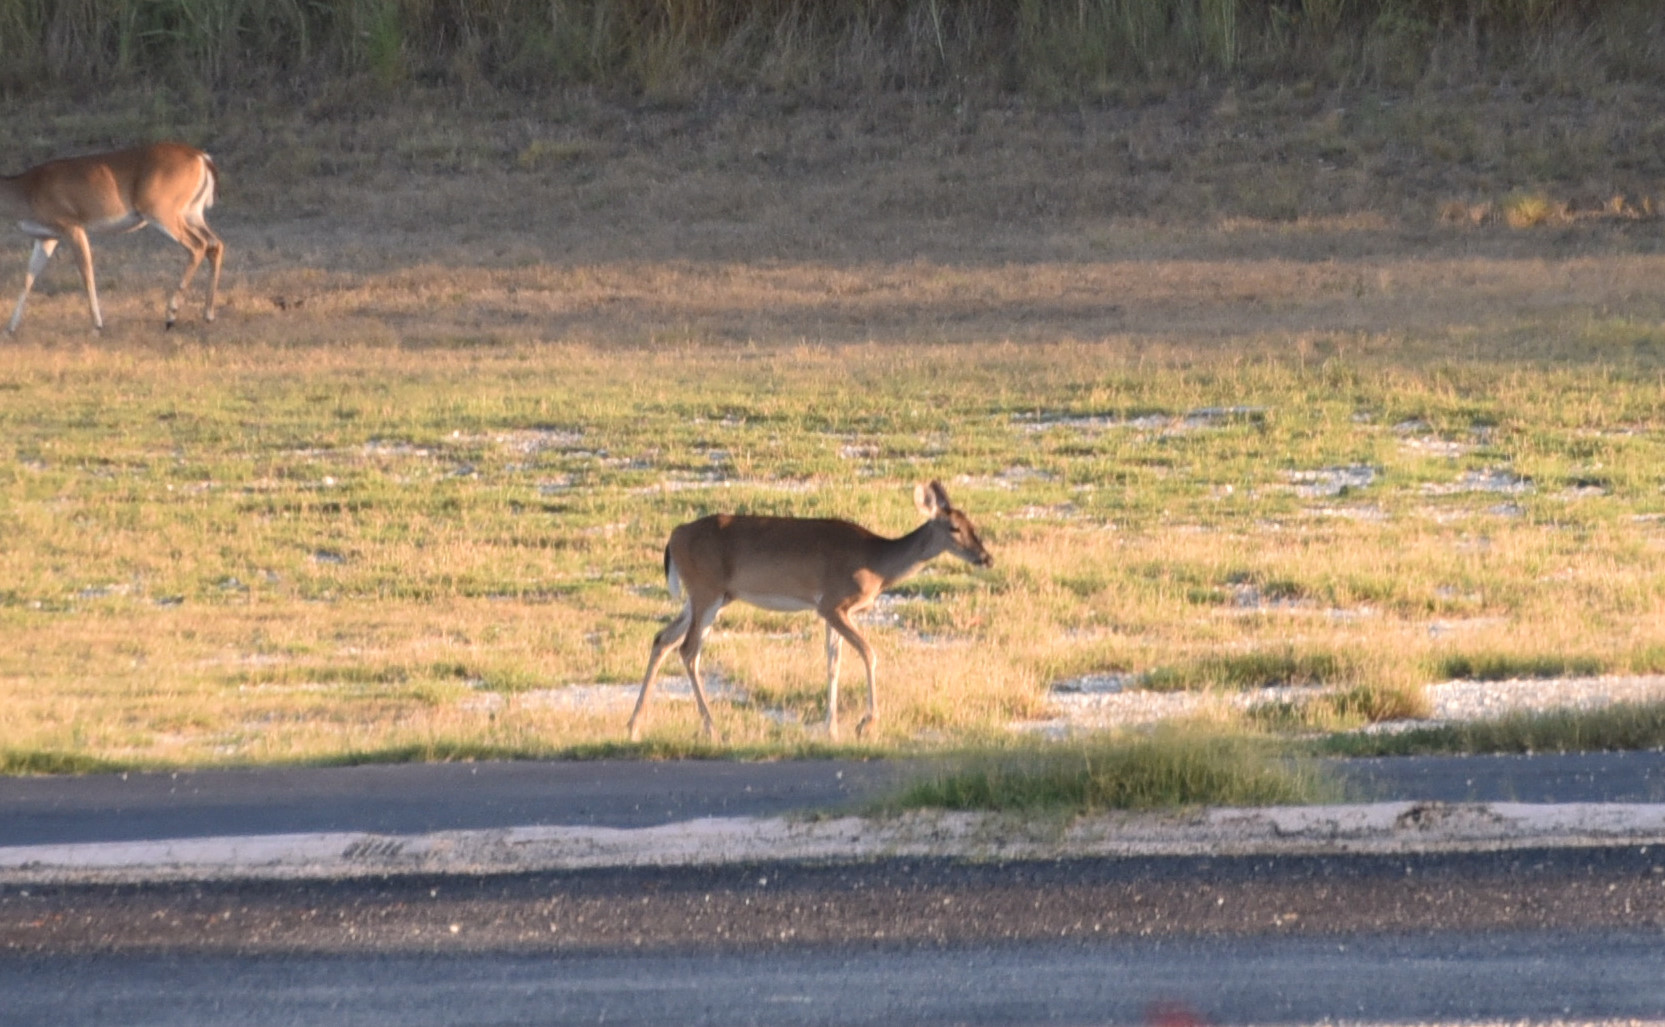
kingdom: Animalia
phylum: Chordata
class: Mammalia
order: Artiodactyla
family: Cervidae
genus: Odocoileus
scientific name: Odocoileus virginianus
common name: White-tailed deer
